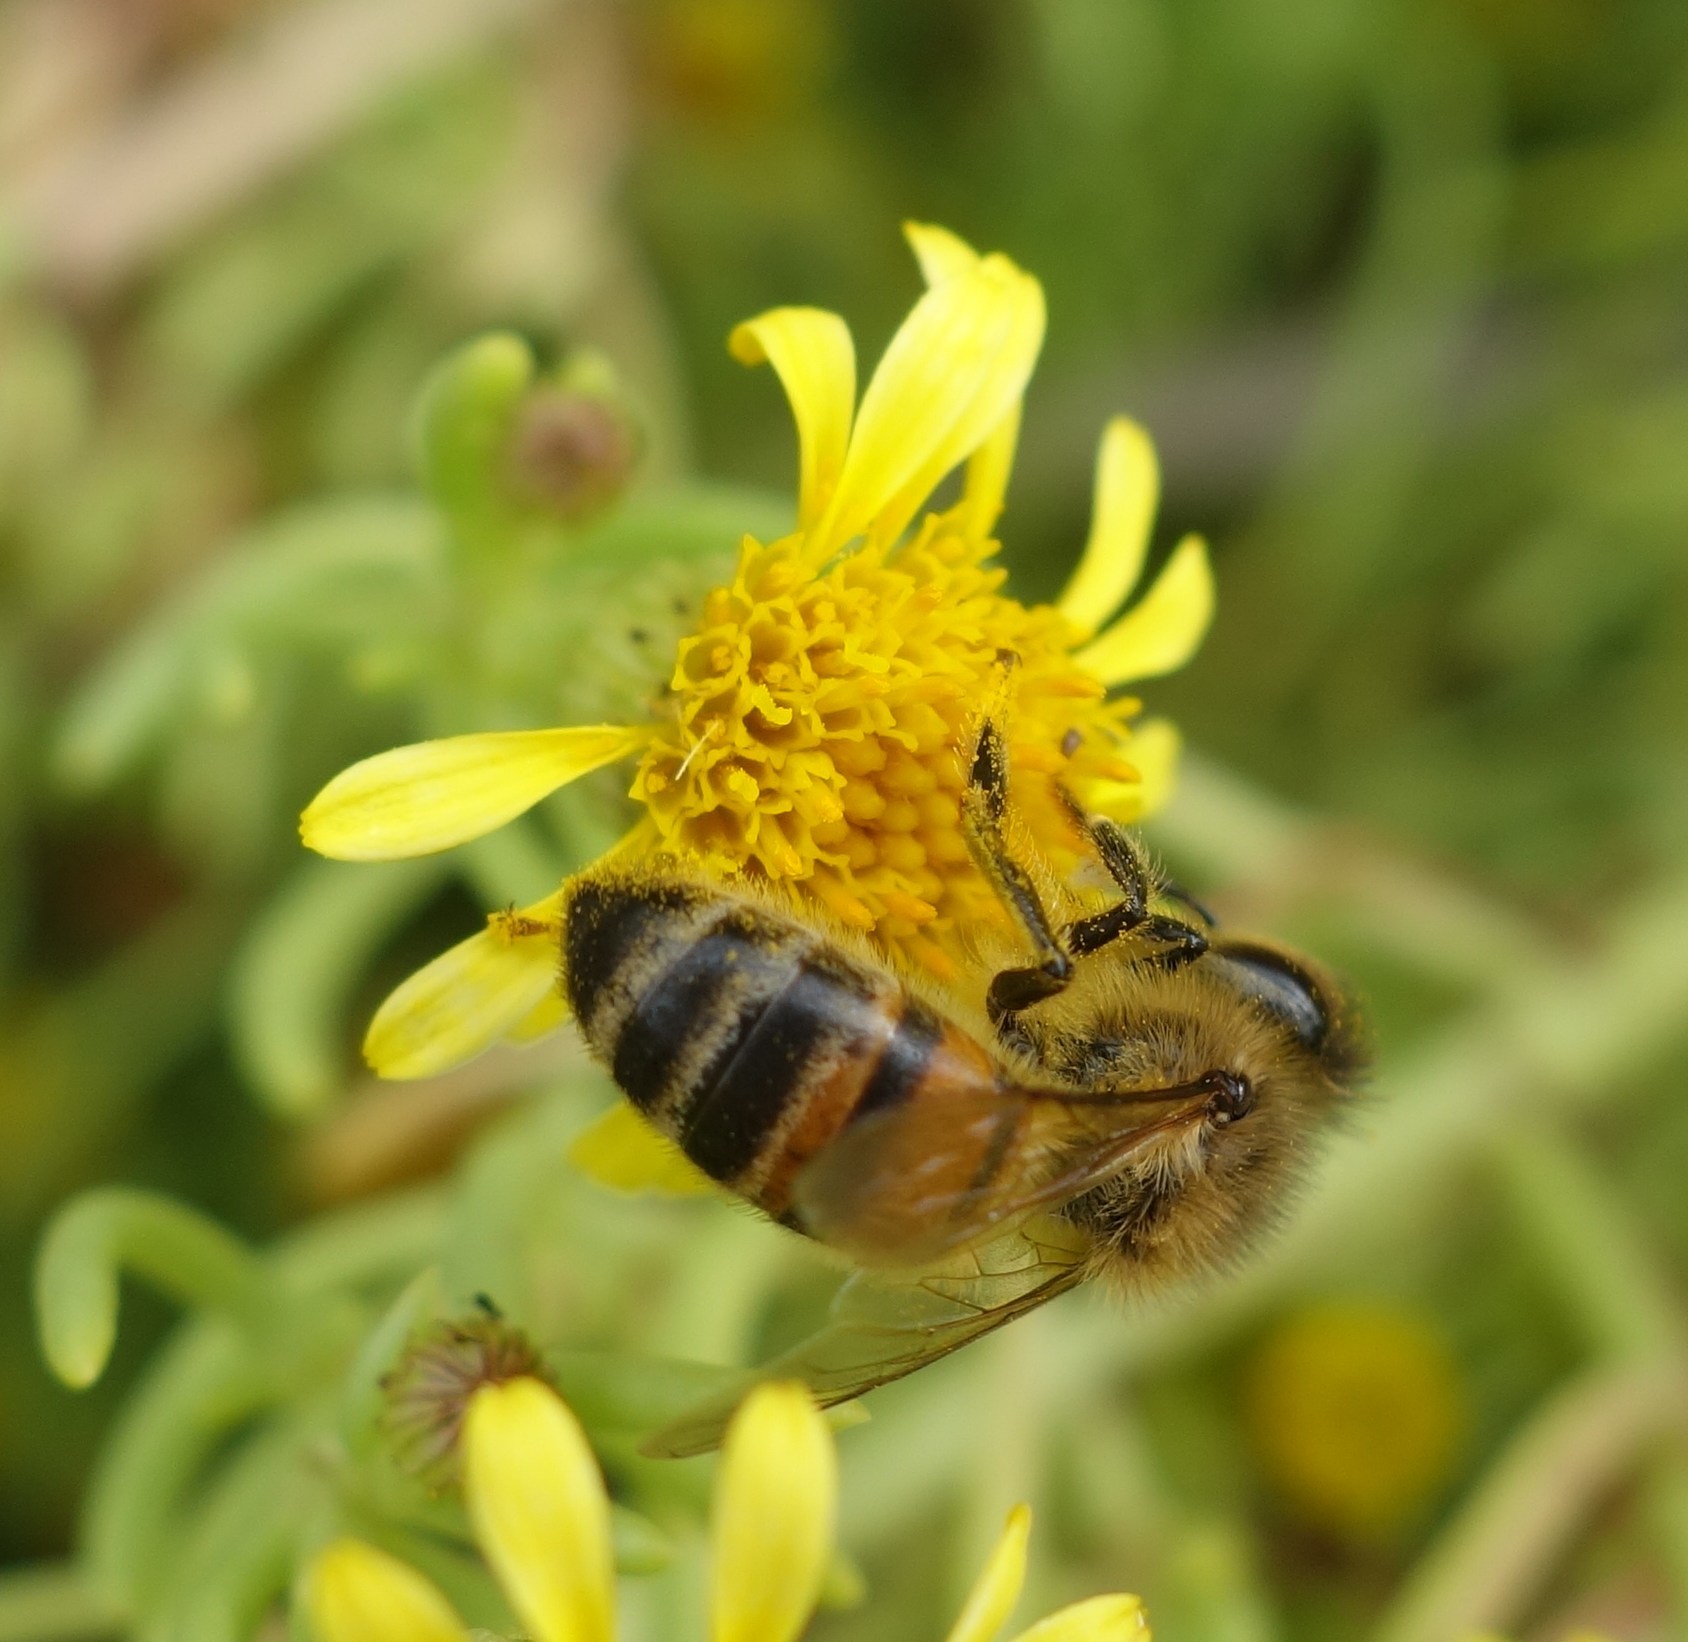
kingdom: Animalia
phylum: Arthropoda
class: Insecta
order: Hymenoptera
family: Apidae
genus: Apis
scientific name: Apis mellifera
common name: Honey bee
